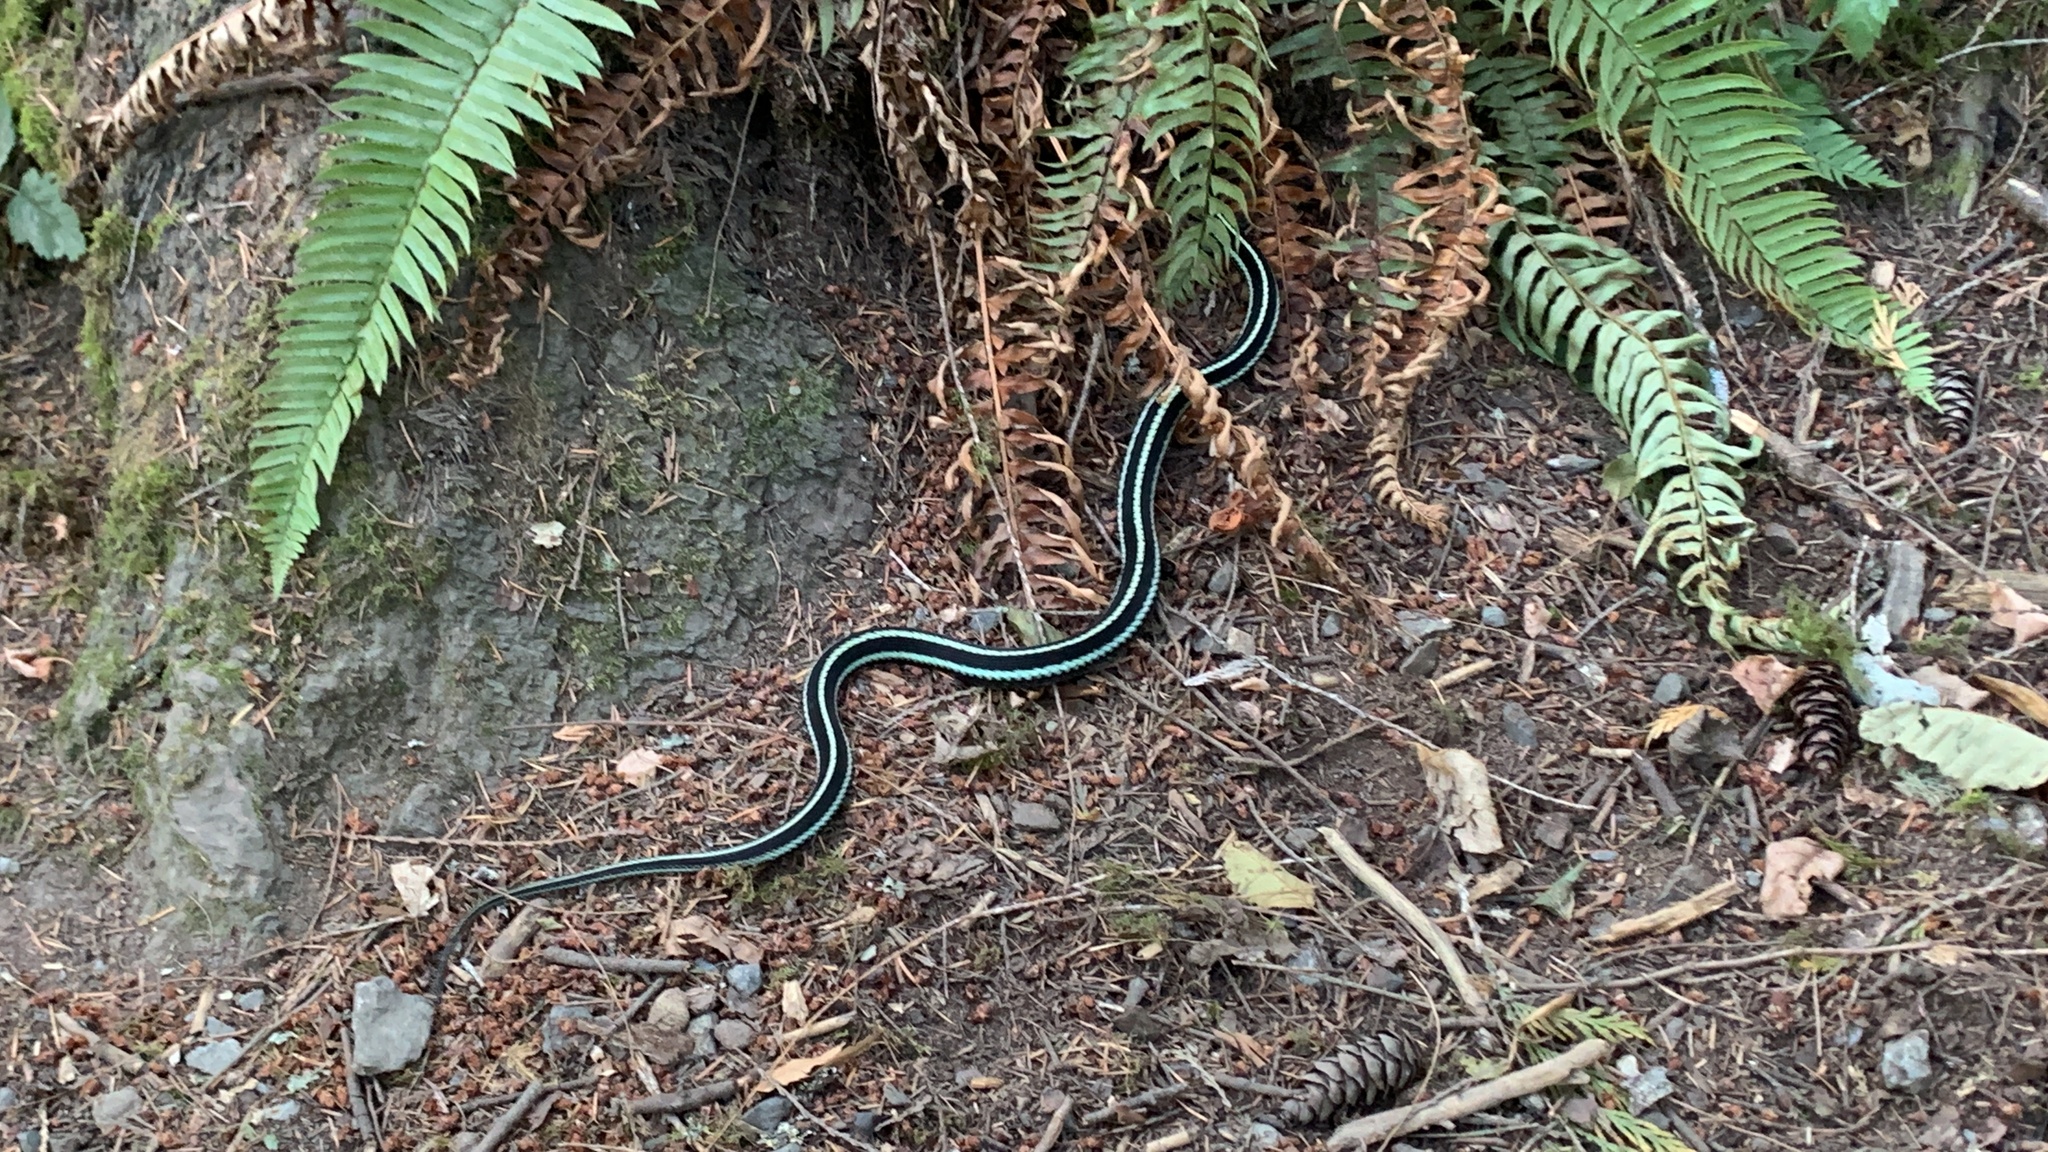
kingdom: Animalia
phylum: Chordata
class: Squamata
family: Colubridae
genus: Thamnophis
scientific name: Thamnophis sirtalis
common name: Common garter snake
